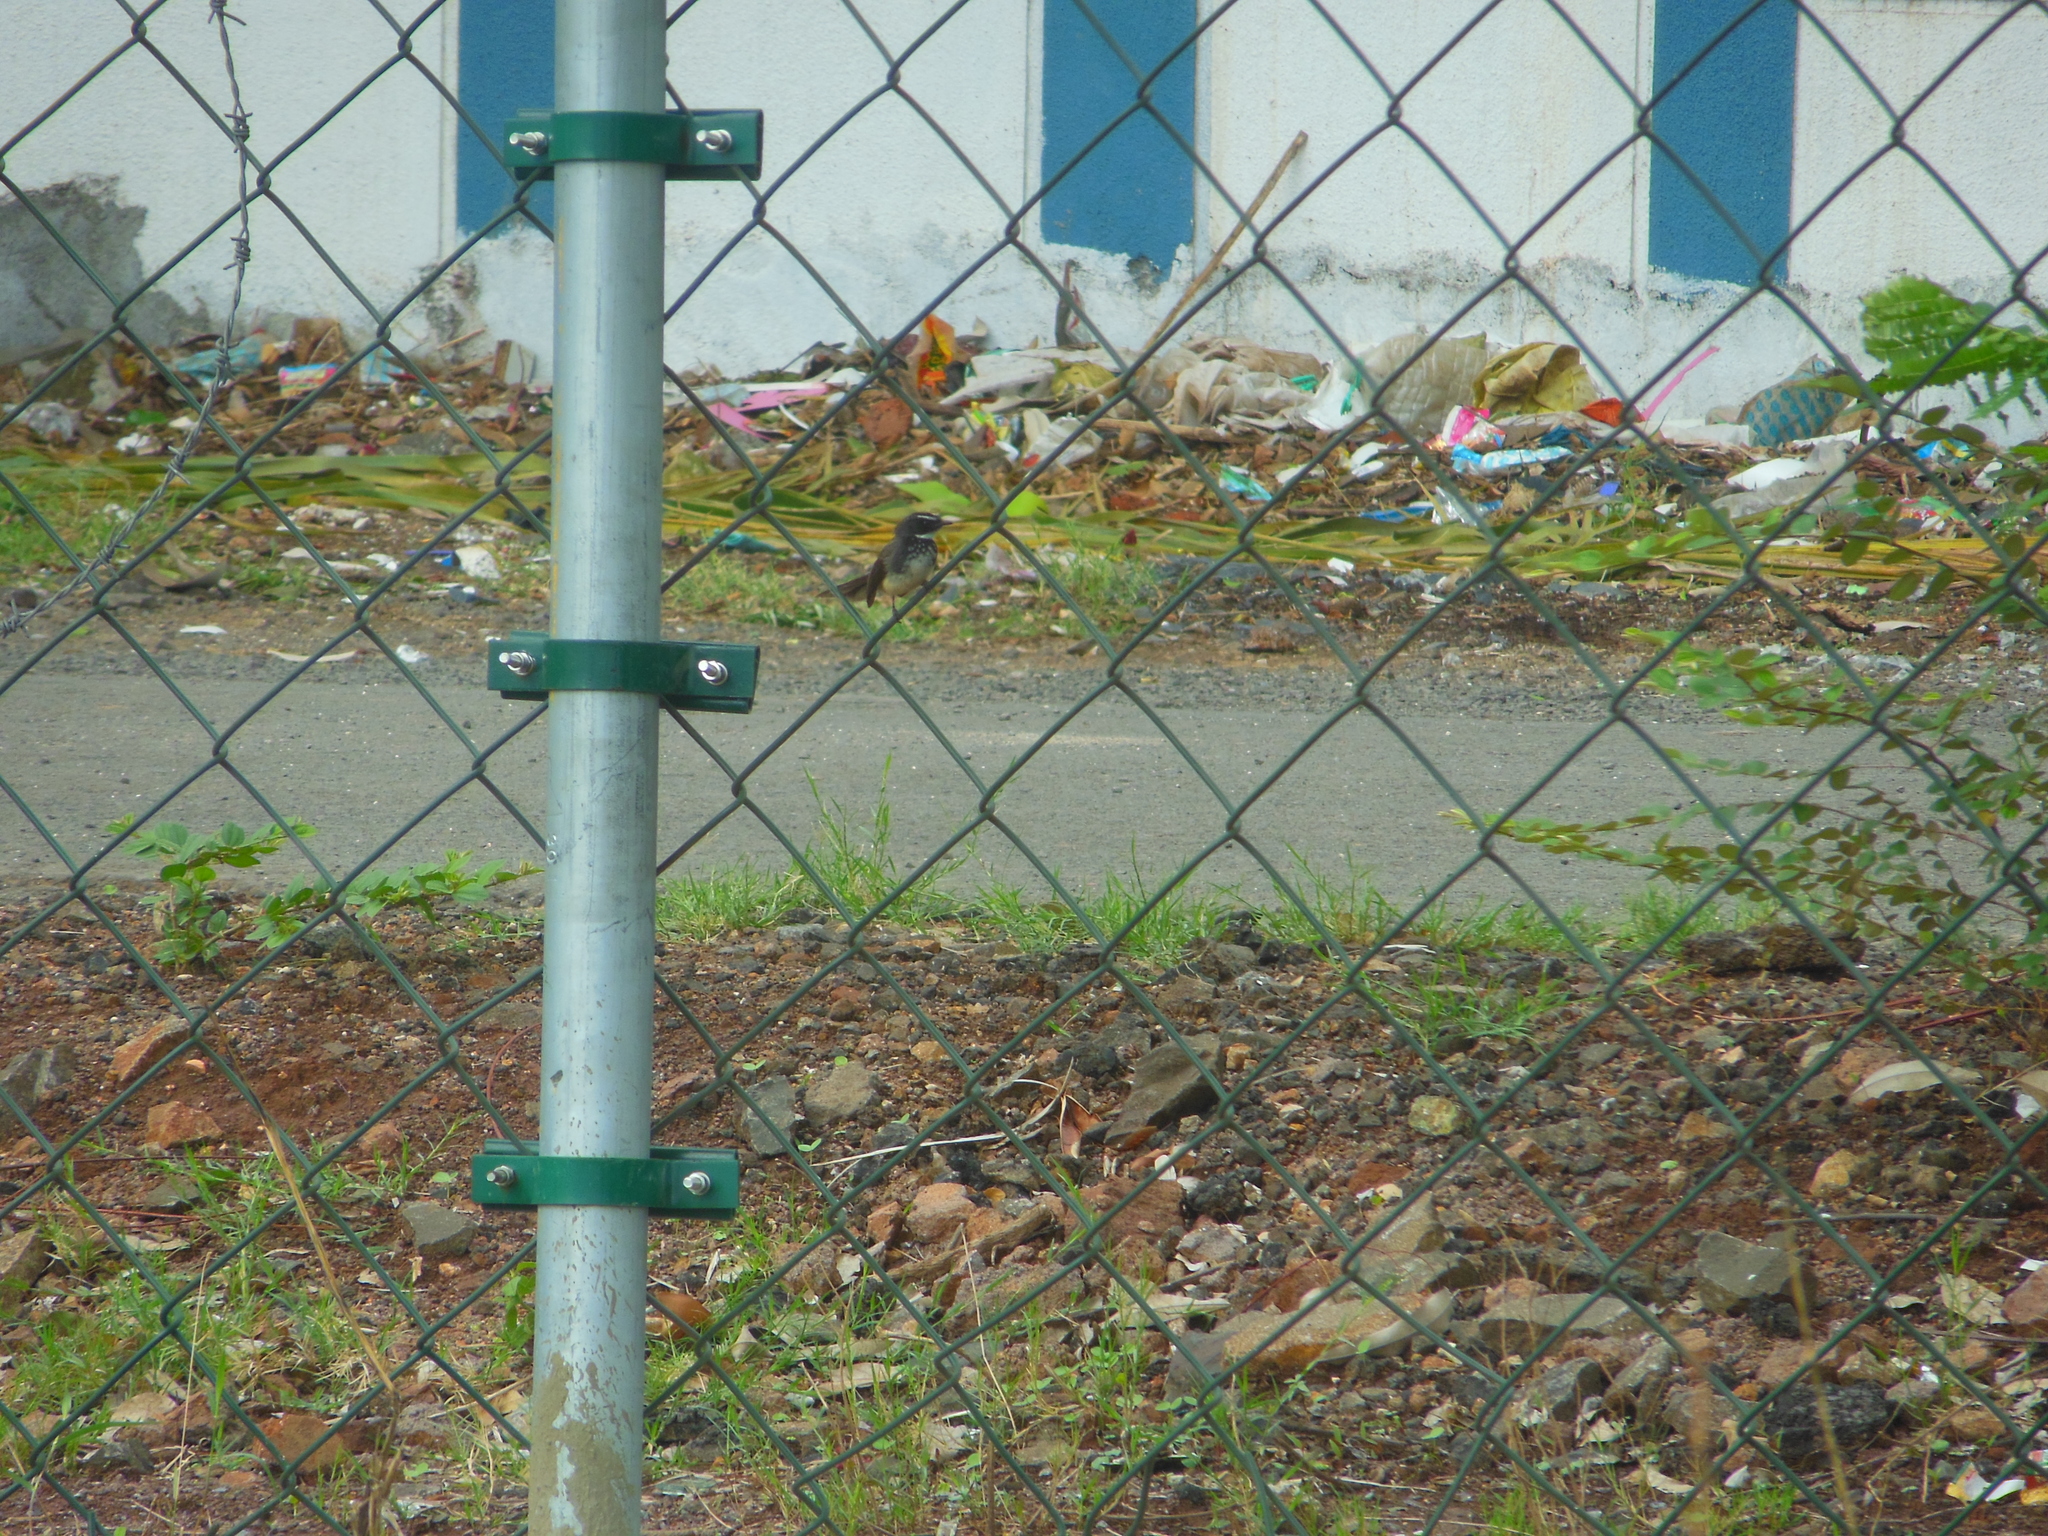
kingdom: Animalia
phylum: Chordata
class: Aves
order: Passeriformes
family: Rhipiduridae
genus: Rhipidura
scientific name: Rhipidura albogularis
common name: White-spotted fantail
